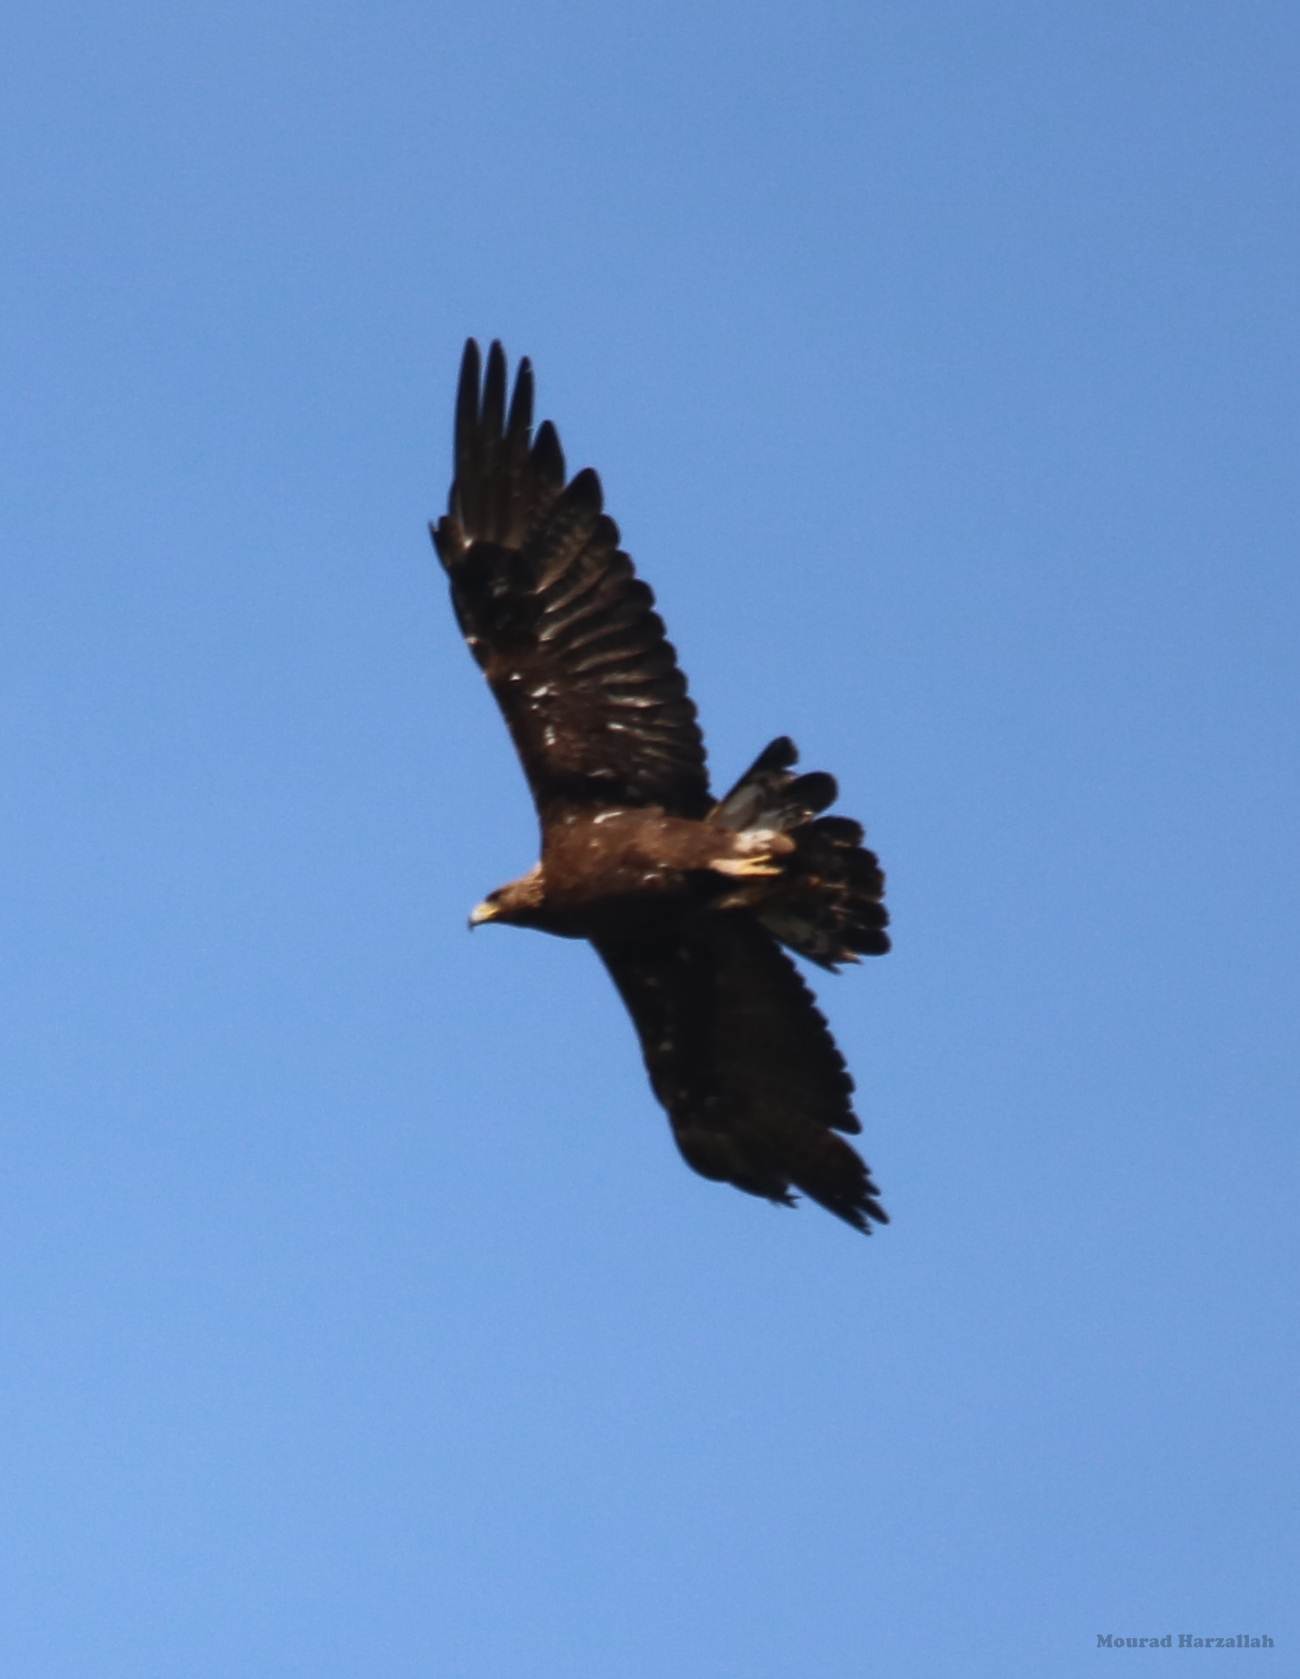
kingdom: Animalia
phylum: Chordata
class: Aves
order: Accipitriformes
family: Accipitridae
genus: Aquila
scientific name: Aquila chrysaetos
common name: Golden eagle
